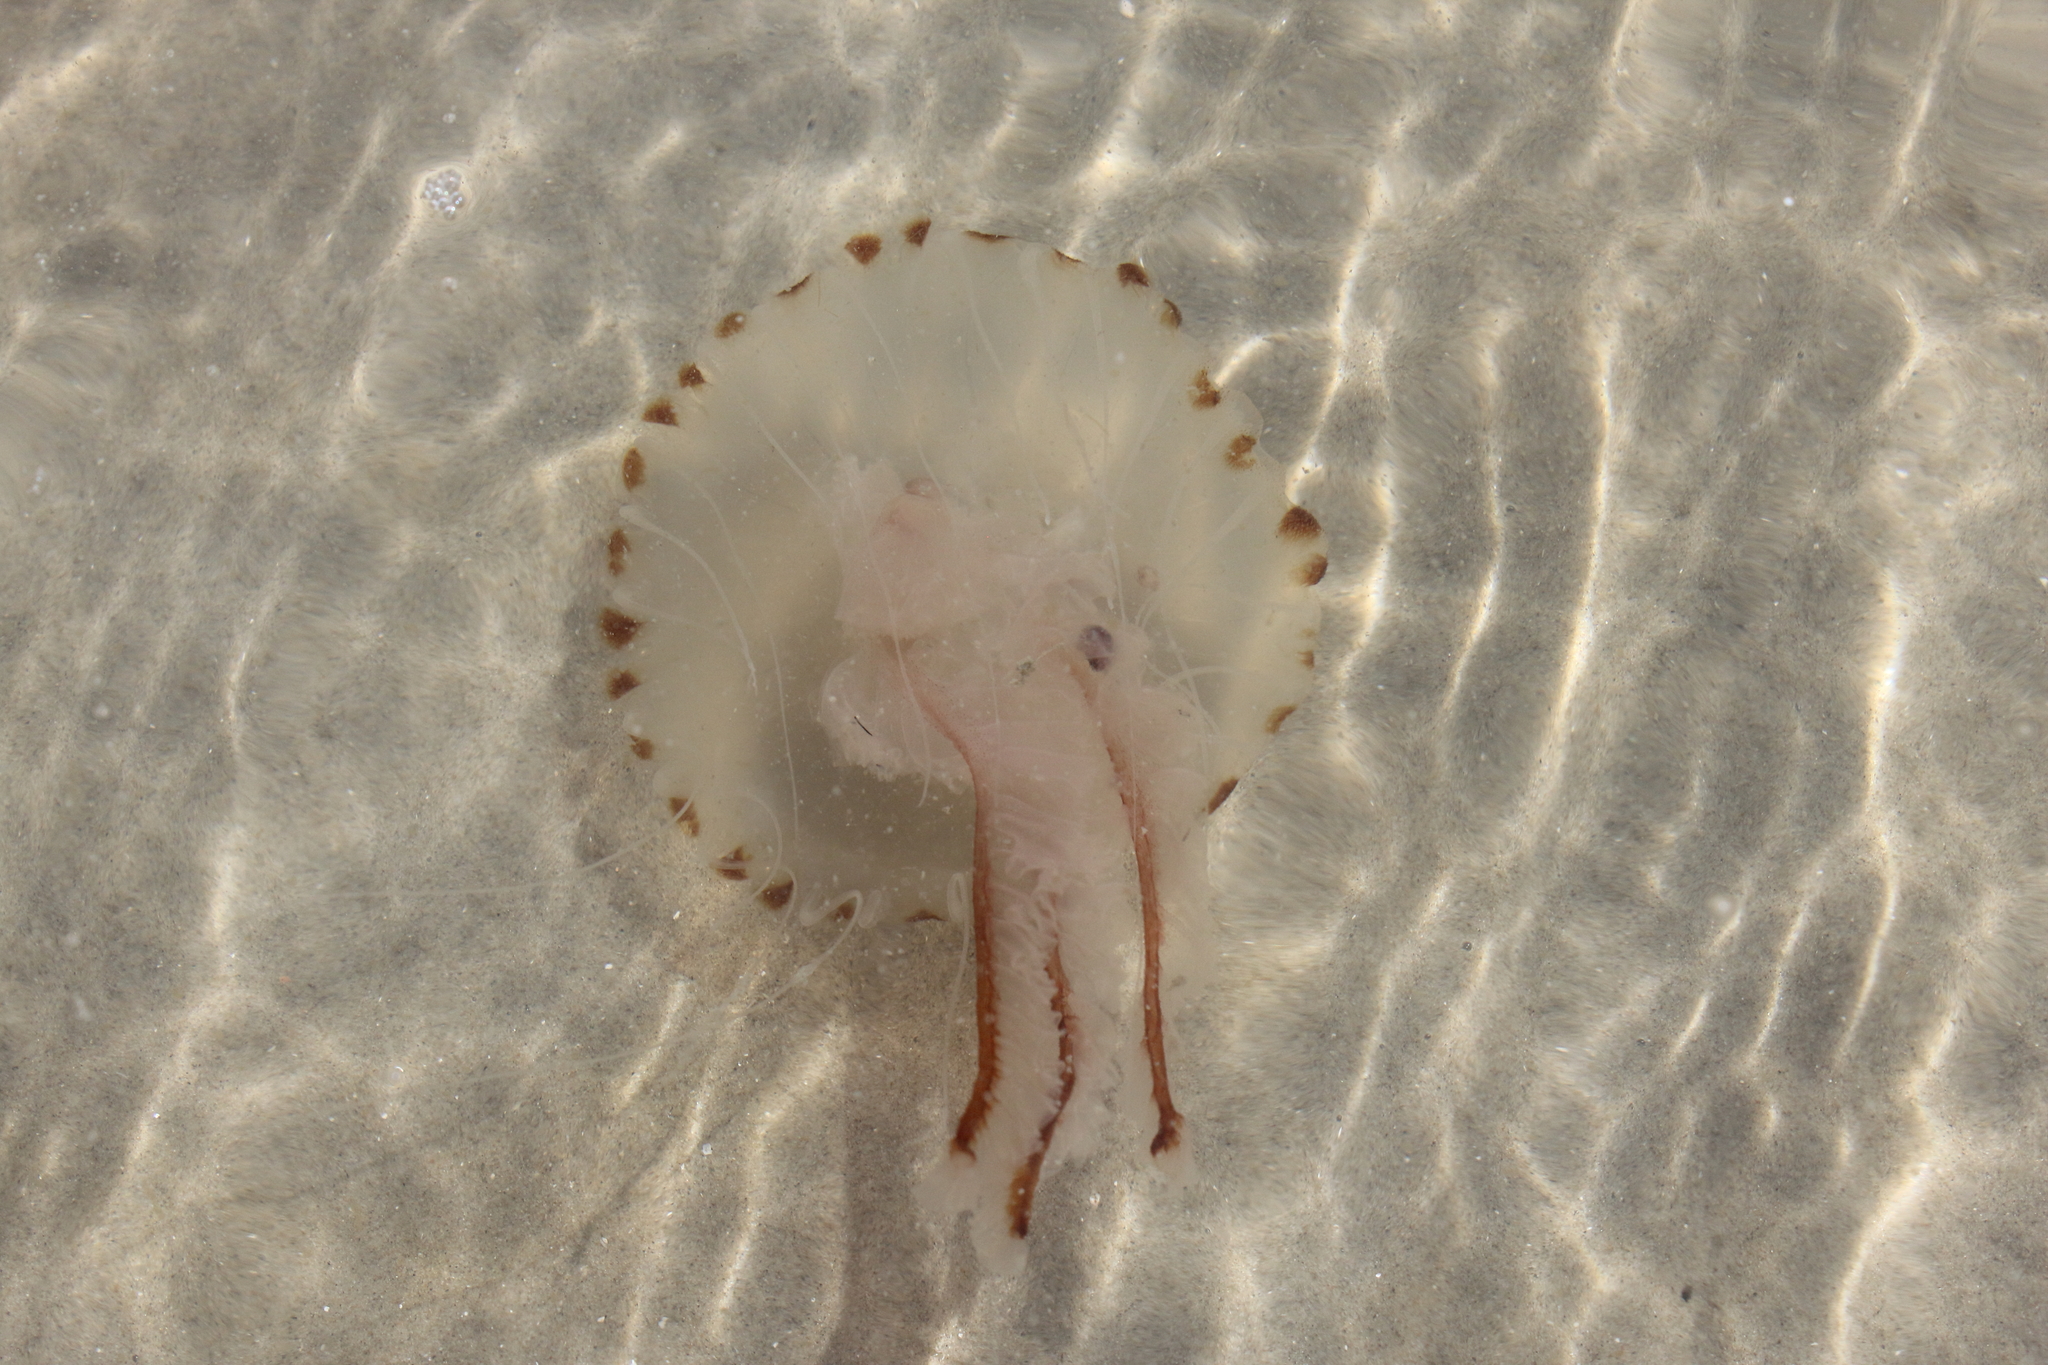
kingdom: Animalia
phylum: Cnidaria
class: Scyphozoa
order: Semaeostomeae
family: Pelagiidae
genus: Chrysaora
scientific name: Chrysaora hysoscella
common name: Compass jellyfish
